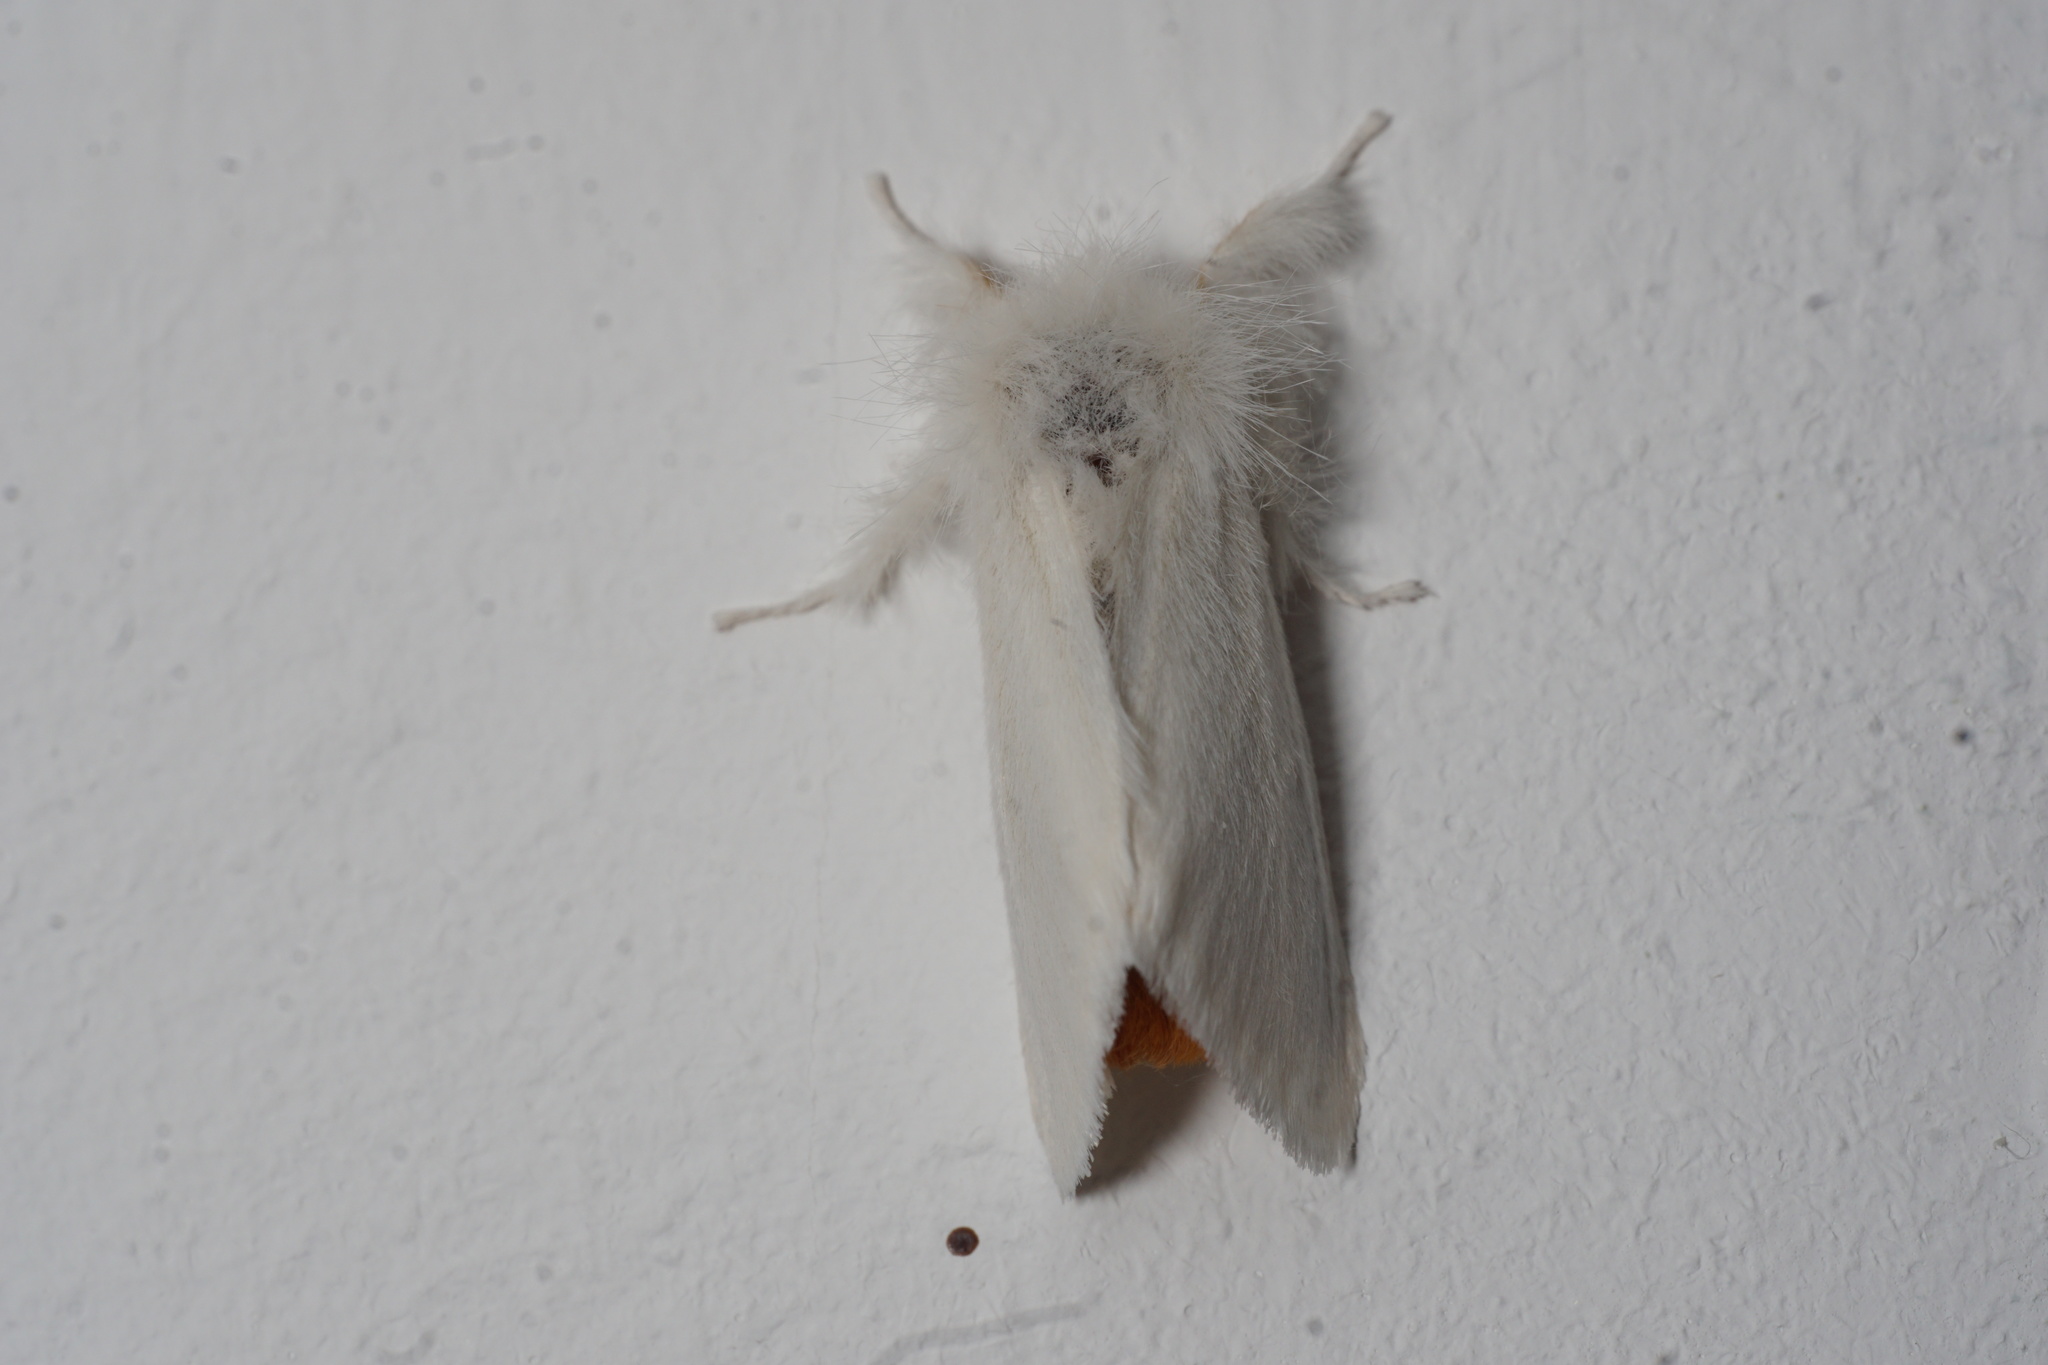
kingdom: Animalia
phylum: Arthropoda
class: Insecta
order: Lepidoptera
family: Erebidae
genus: Sphrageidus
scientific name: Sphrageidus similis
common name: Yellow-tail
